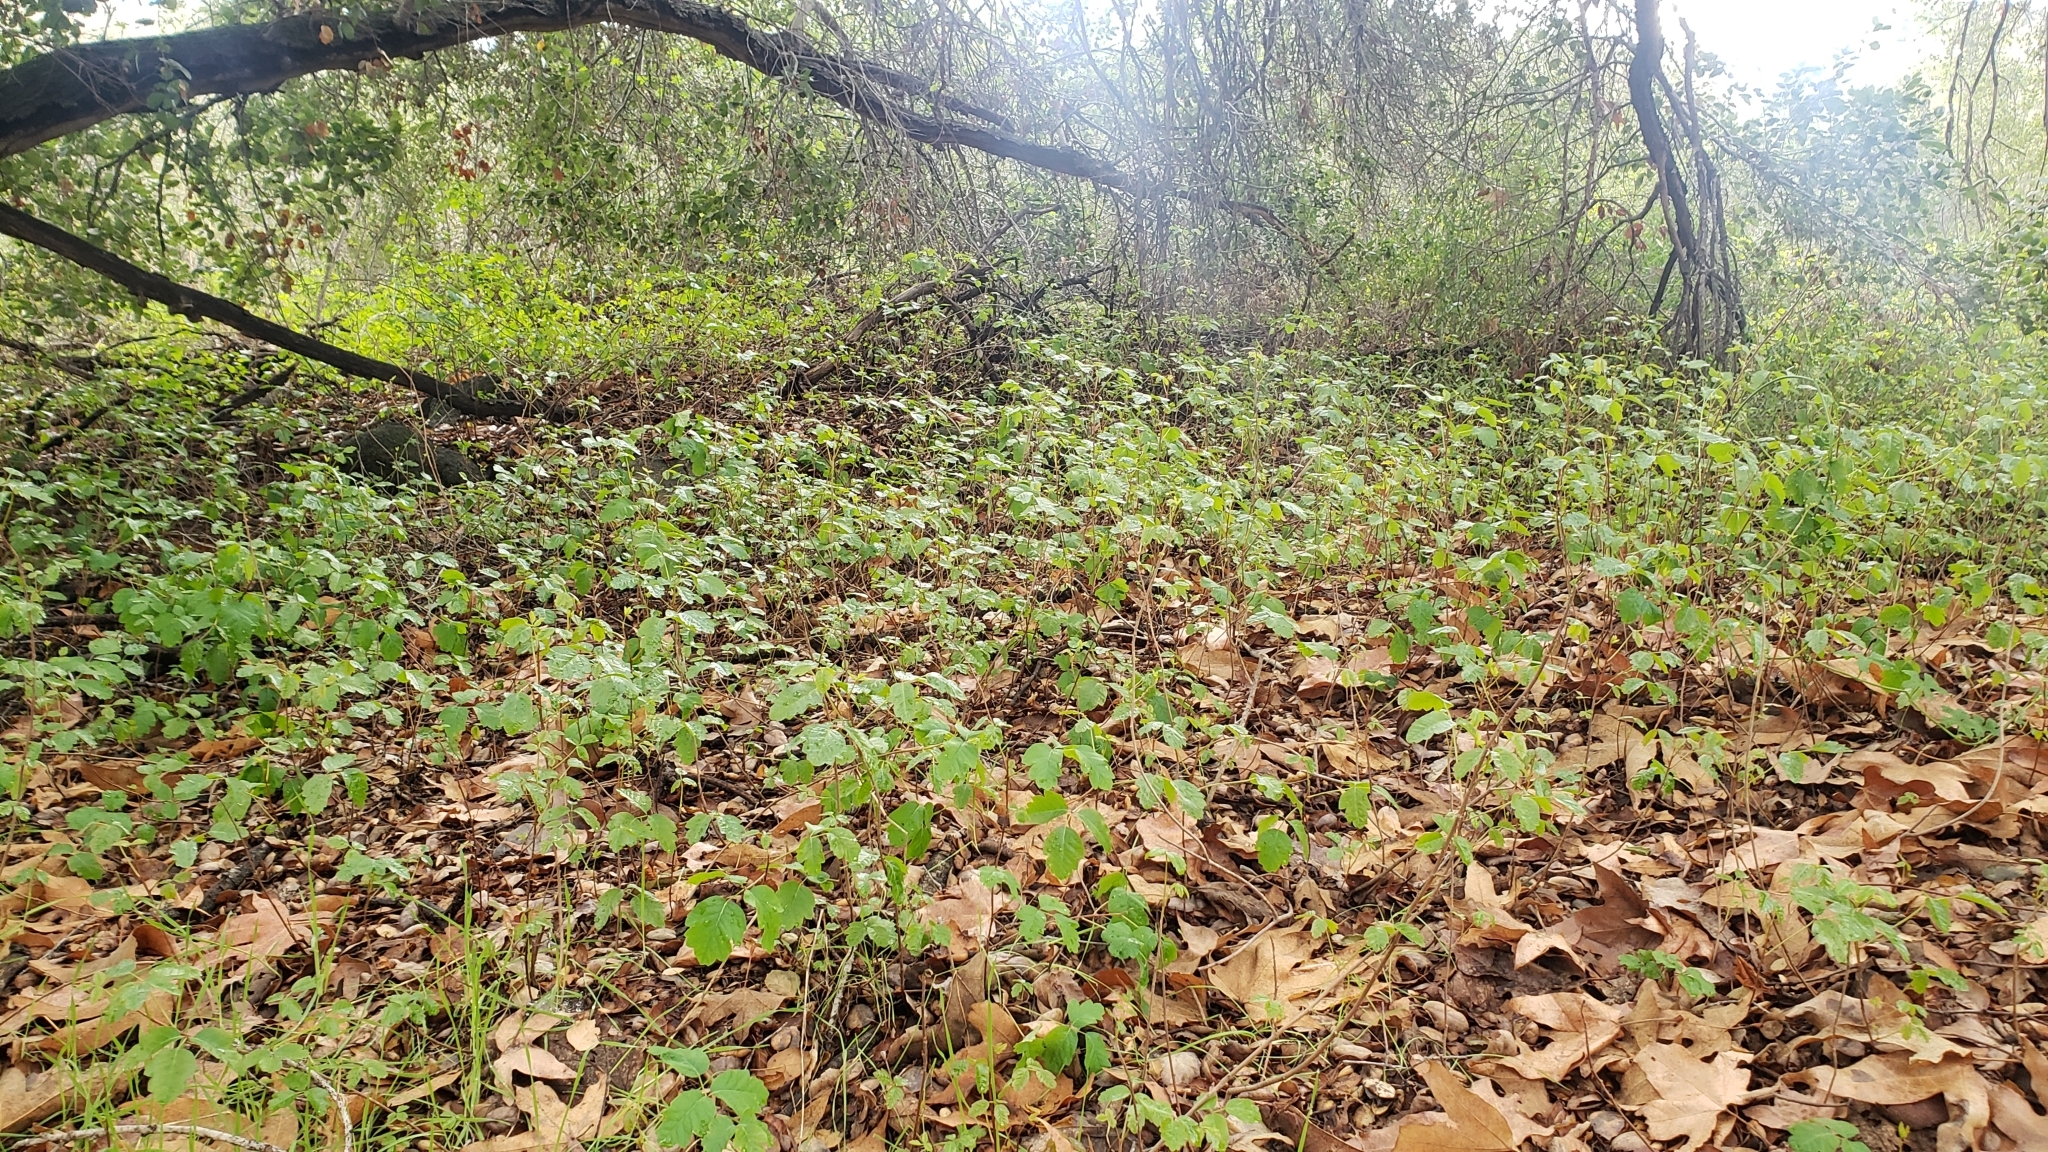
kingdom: Plantae
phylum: Tracheophyta
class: Magnoliopsida
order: Sapindales
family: Anacardiaceae
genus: Toxicodendron
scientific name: Toxicodendron diversilobum
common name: Pacific poison-oak
